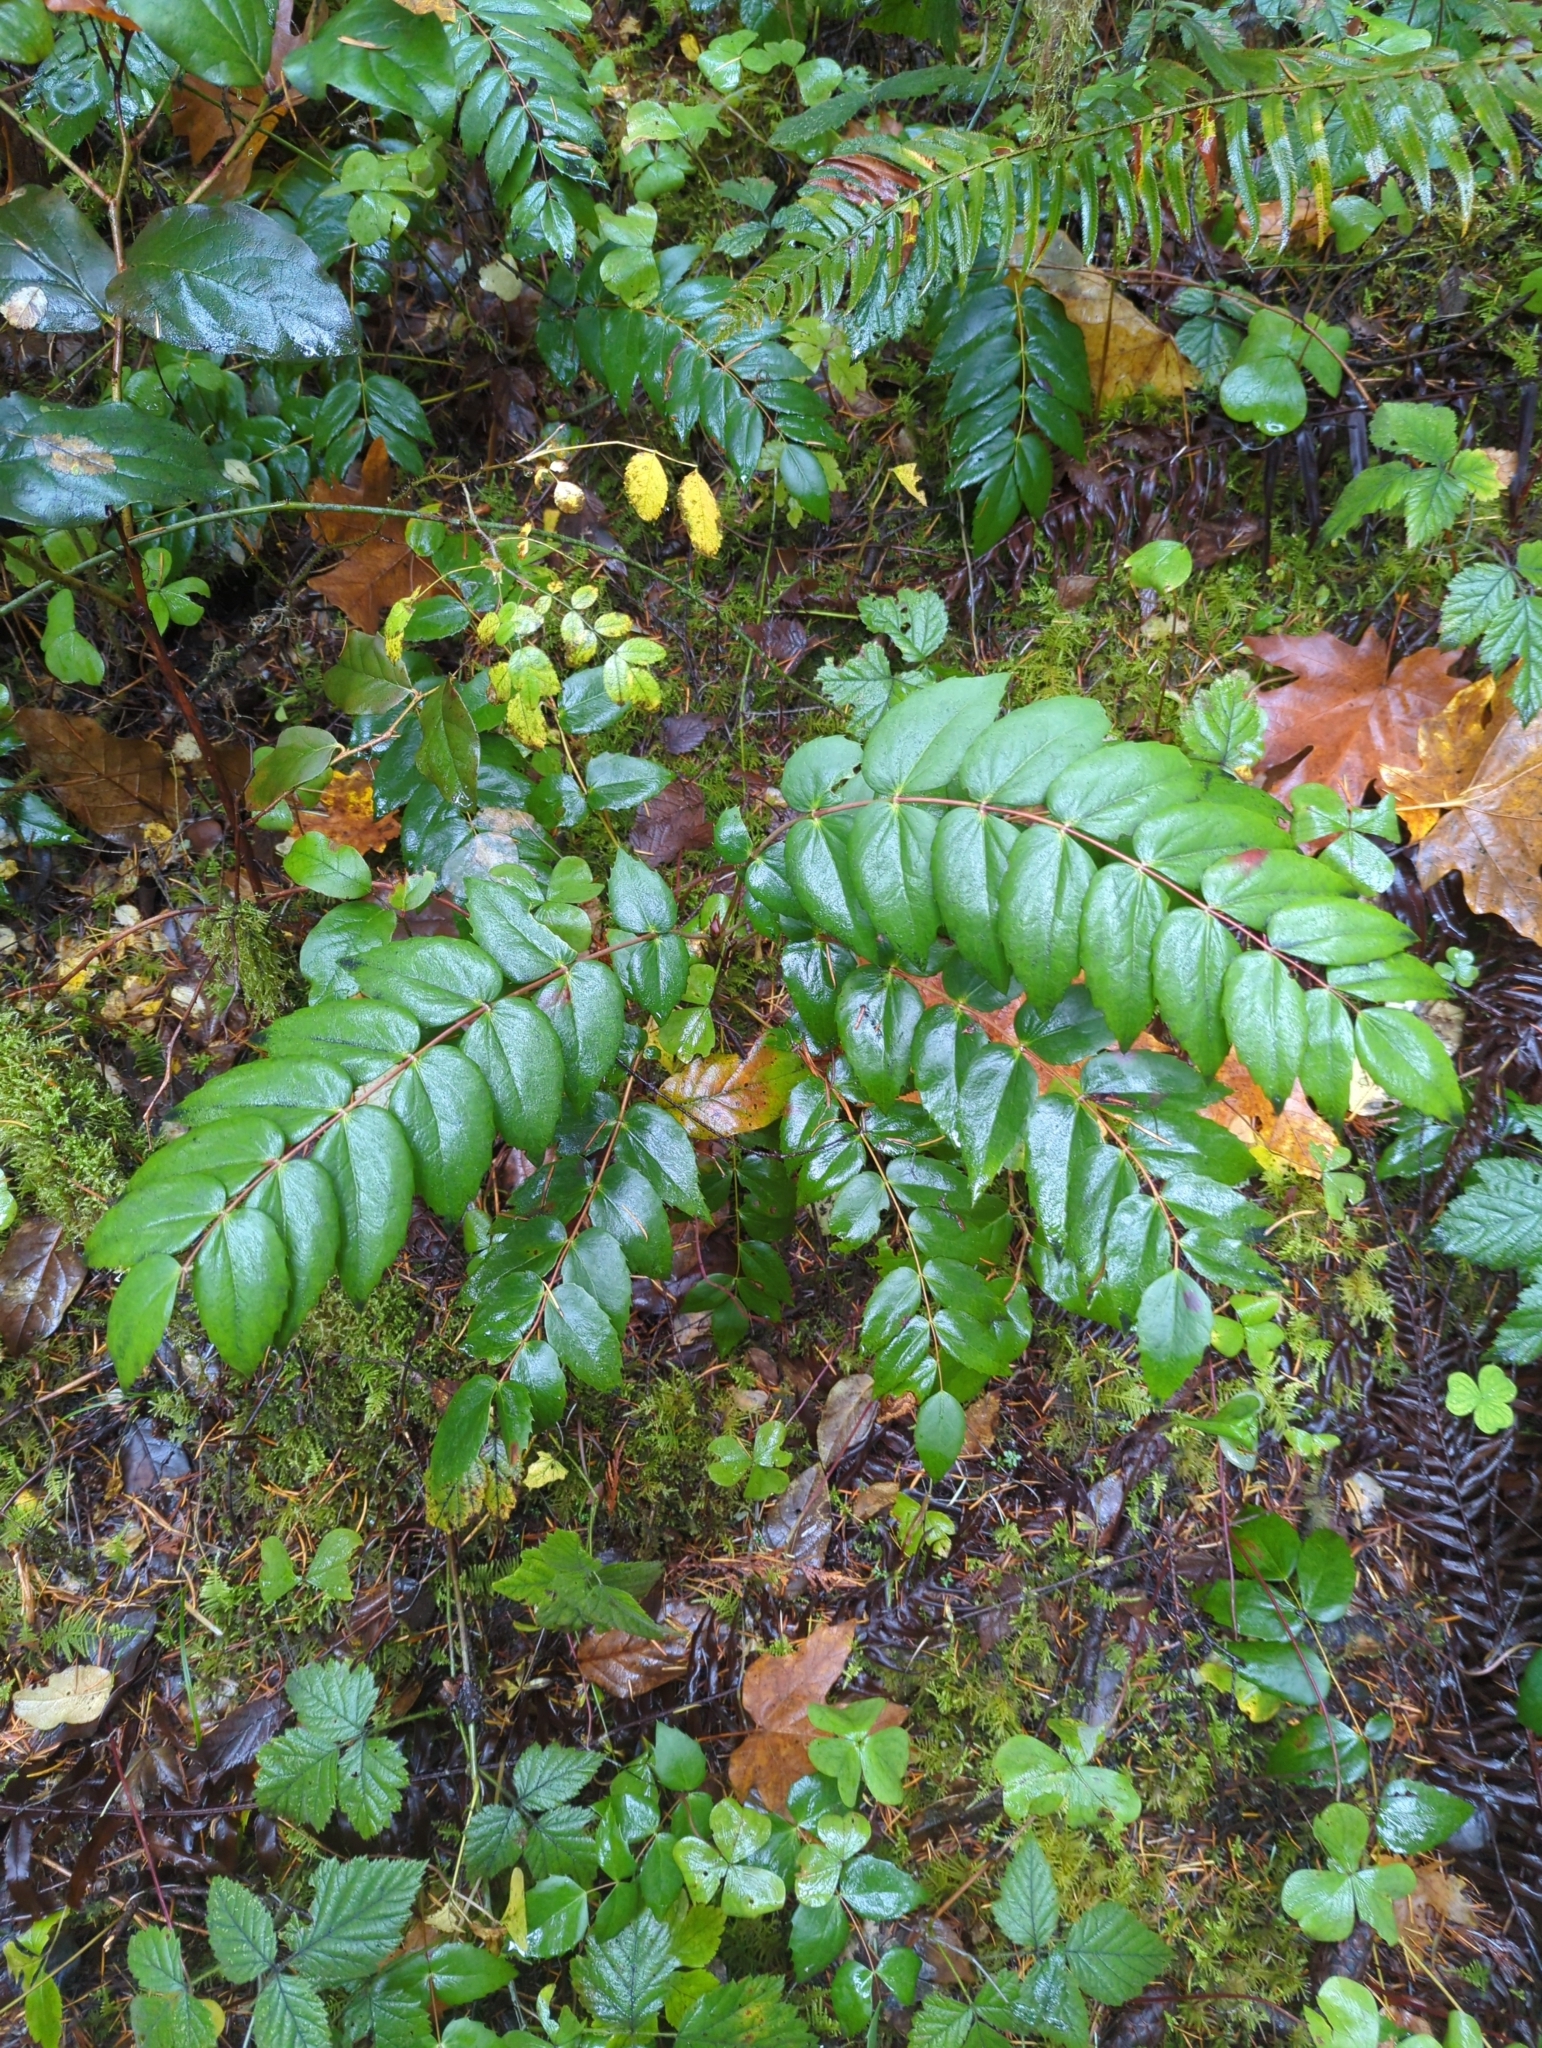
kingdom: Plantae
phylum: Tracheophyta
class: Magnoliopsida
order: Ranunculales
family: Berberidaceae
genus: Mahonia
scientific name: Mahonia nervosa
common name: Cascade oregon-grape
